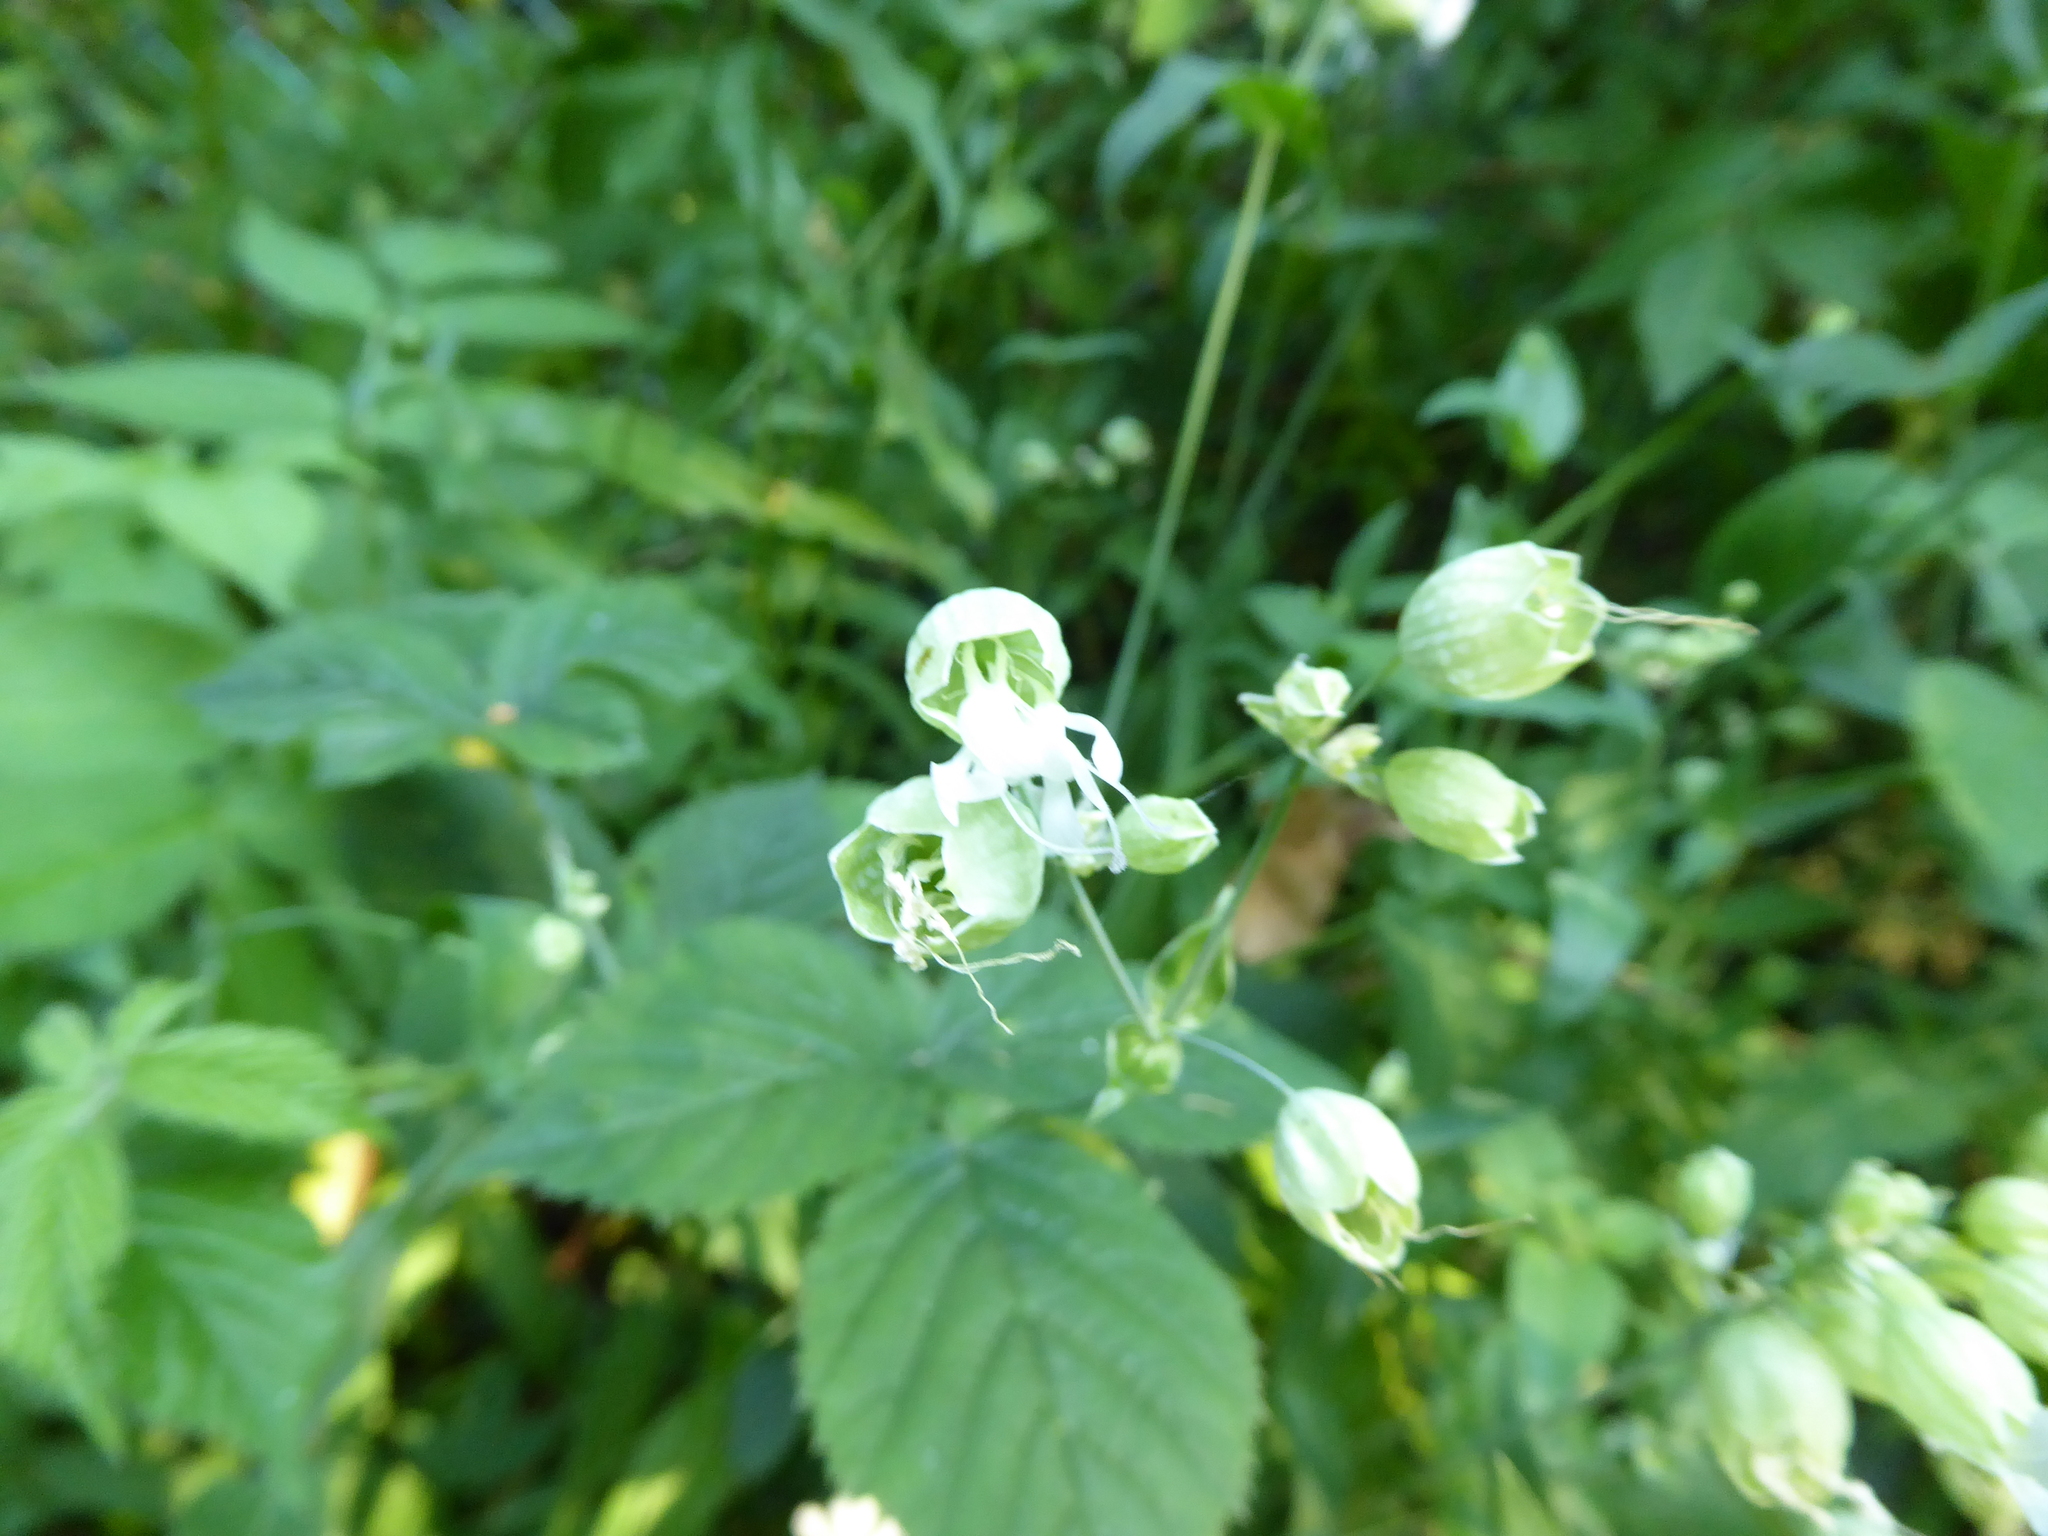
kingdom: Plantae
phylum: Tracheophyta
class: Magnoliopsida
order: Caryophyllales
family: Caryophyllaceae
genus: Silene
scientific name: Silene vulgaris
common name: Bladder campion
